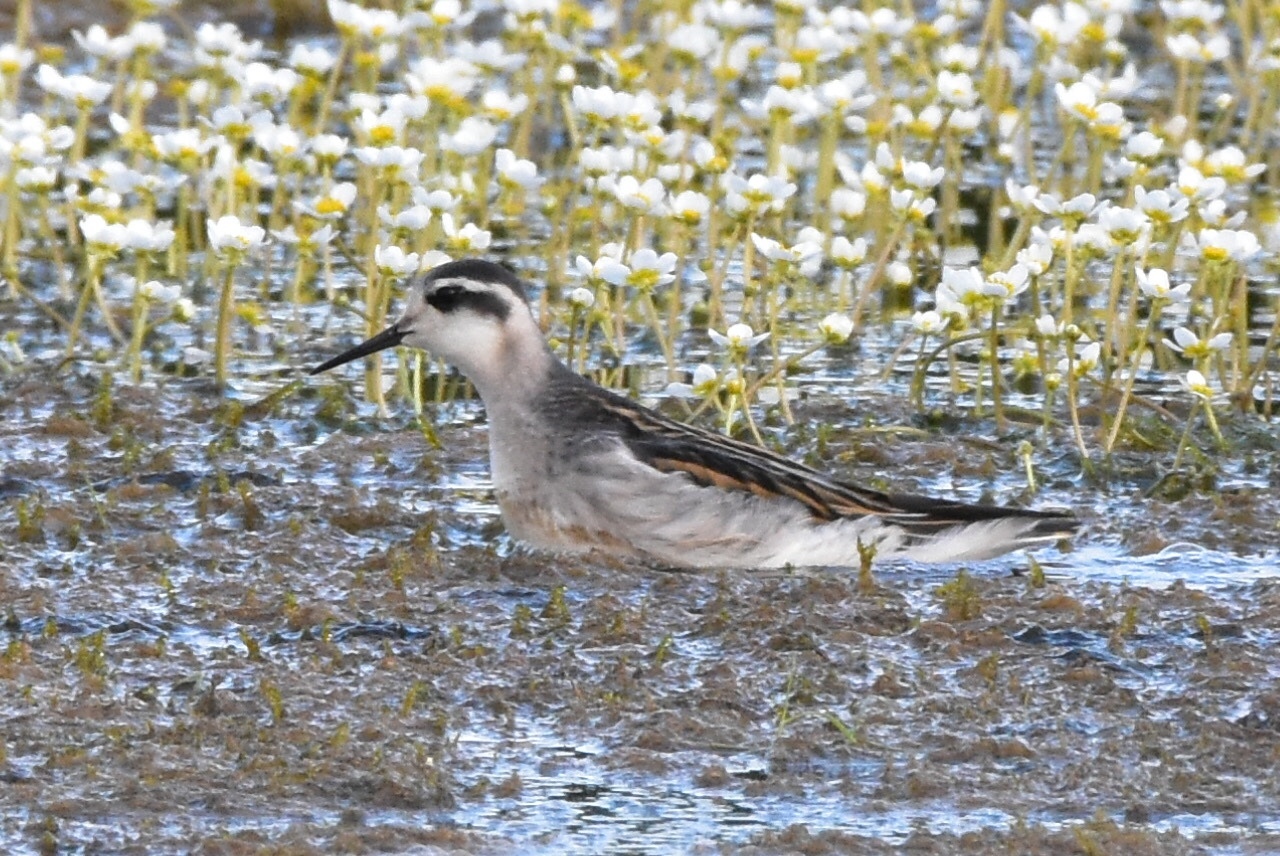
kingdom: Animalia
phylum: Chordata
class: Aves
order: Charadriiformes
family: Scolopacidae
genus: Phalaropus
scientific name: Phalaropus lobatus
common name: Red-necked phalarope
